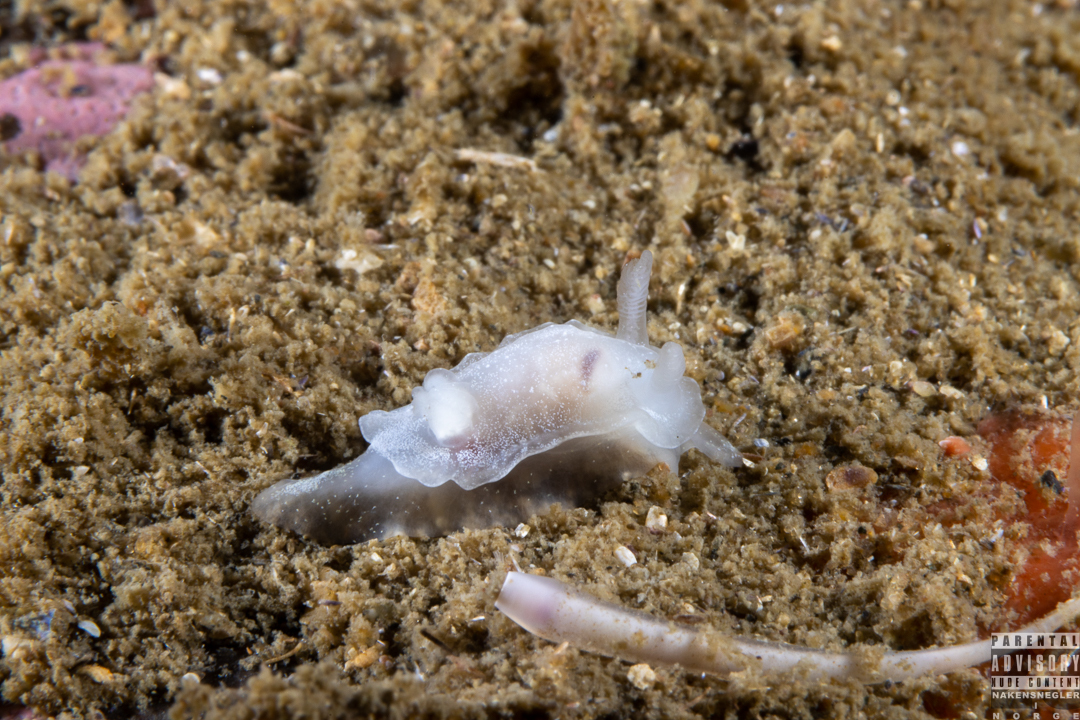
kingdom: Animalia
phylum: Mollusca
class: Gastropoda
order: Nudibranchia
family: Goniodorididae
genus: Okenia
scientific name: Okenia
